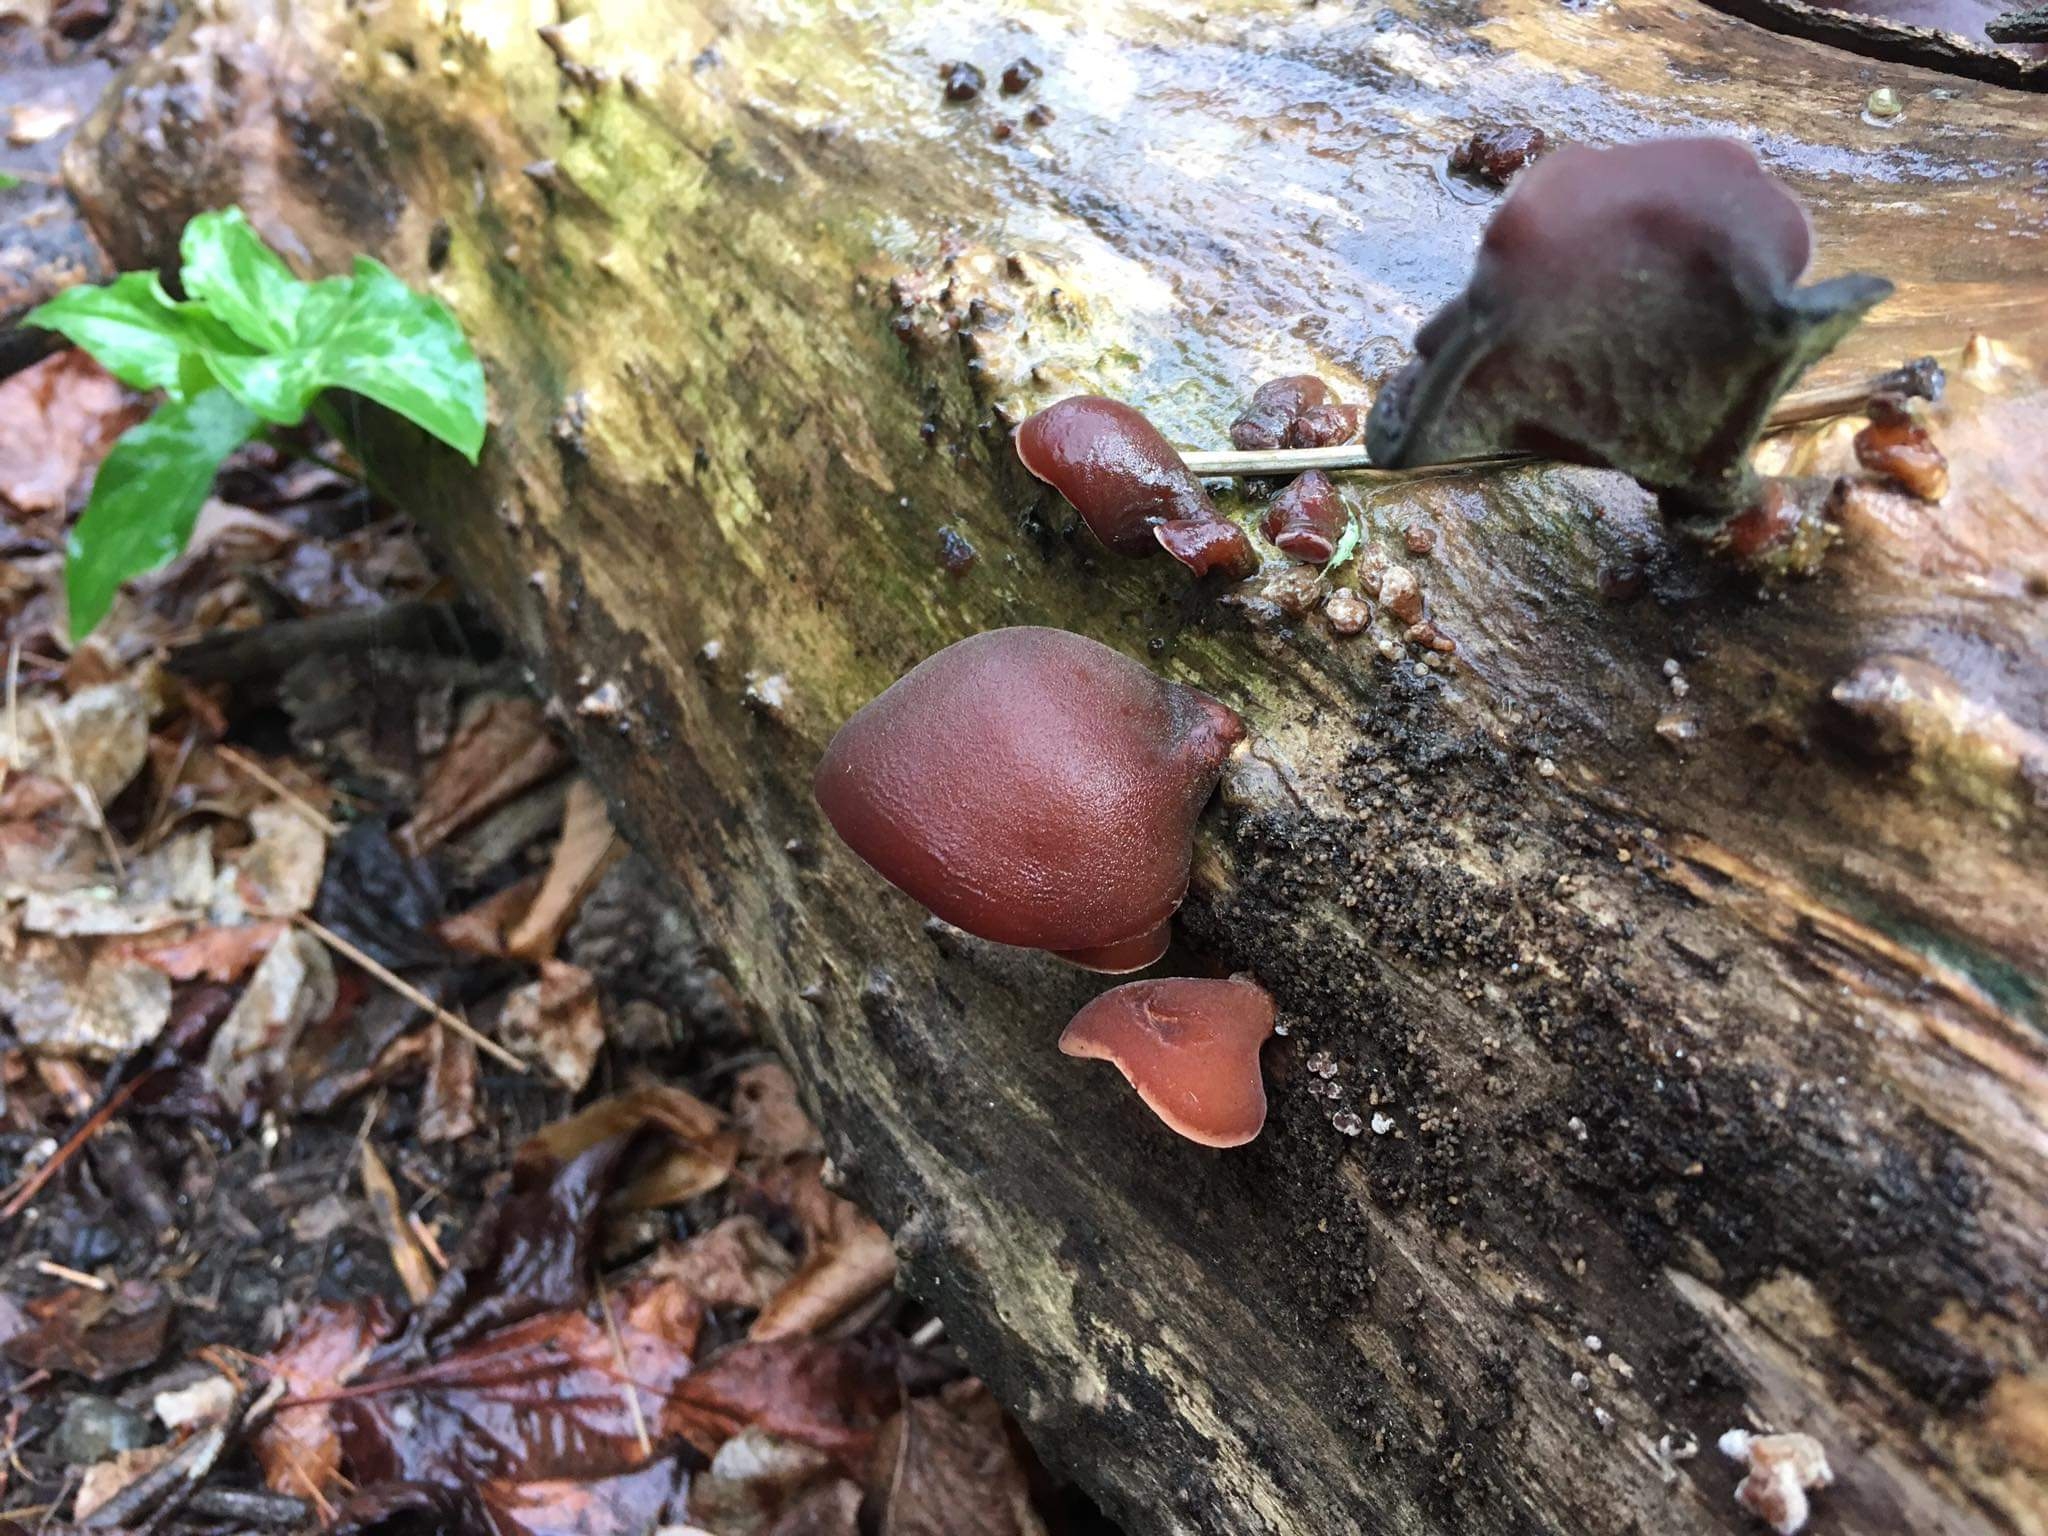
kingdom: Fungi
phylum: Basidiomycota
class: Agaricomycetes
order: Auriculariales
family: Auriculariaceae
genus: Auricularia
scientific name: Auricularia cornea
